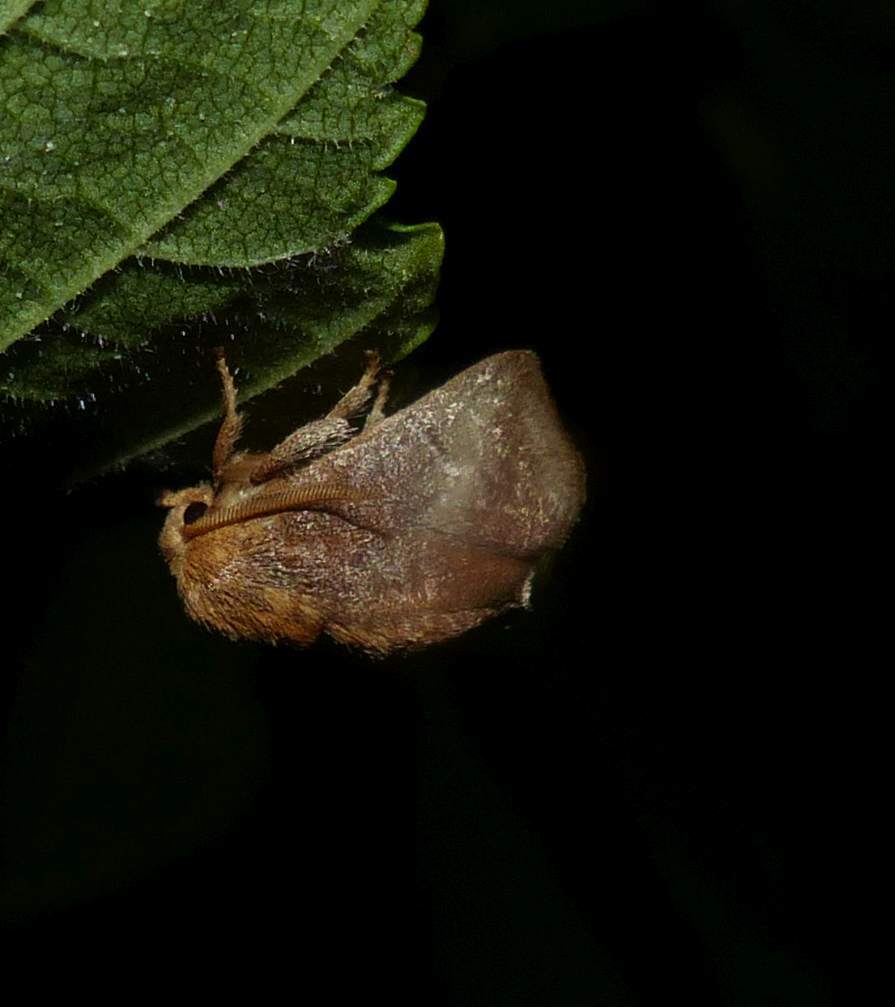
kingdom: Animalia
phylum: Arthropoda
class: Insecta
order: Lepidoptera
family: Limacodidae
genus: Isa
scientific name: Isa textula
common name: Crowned slug moth
